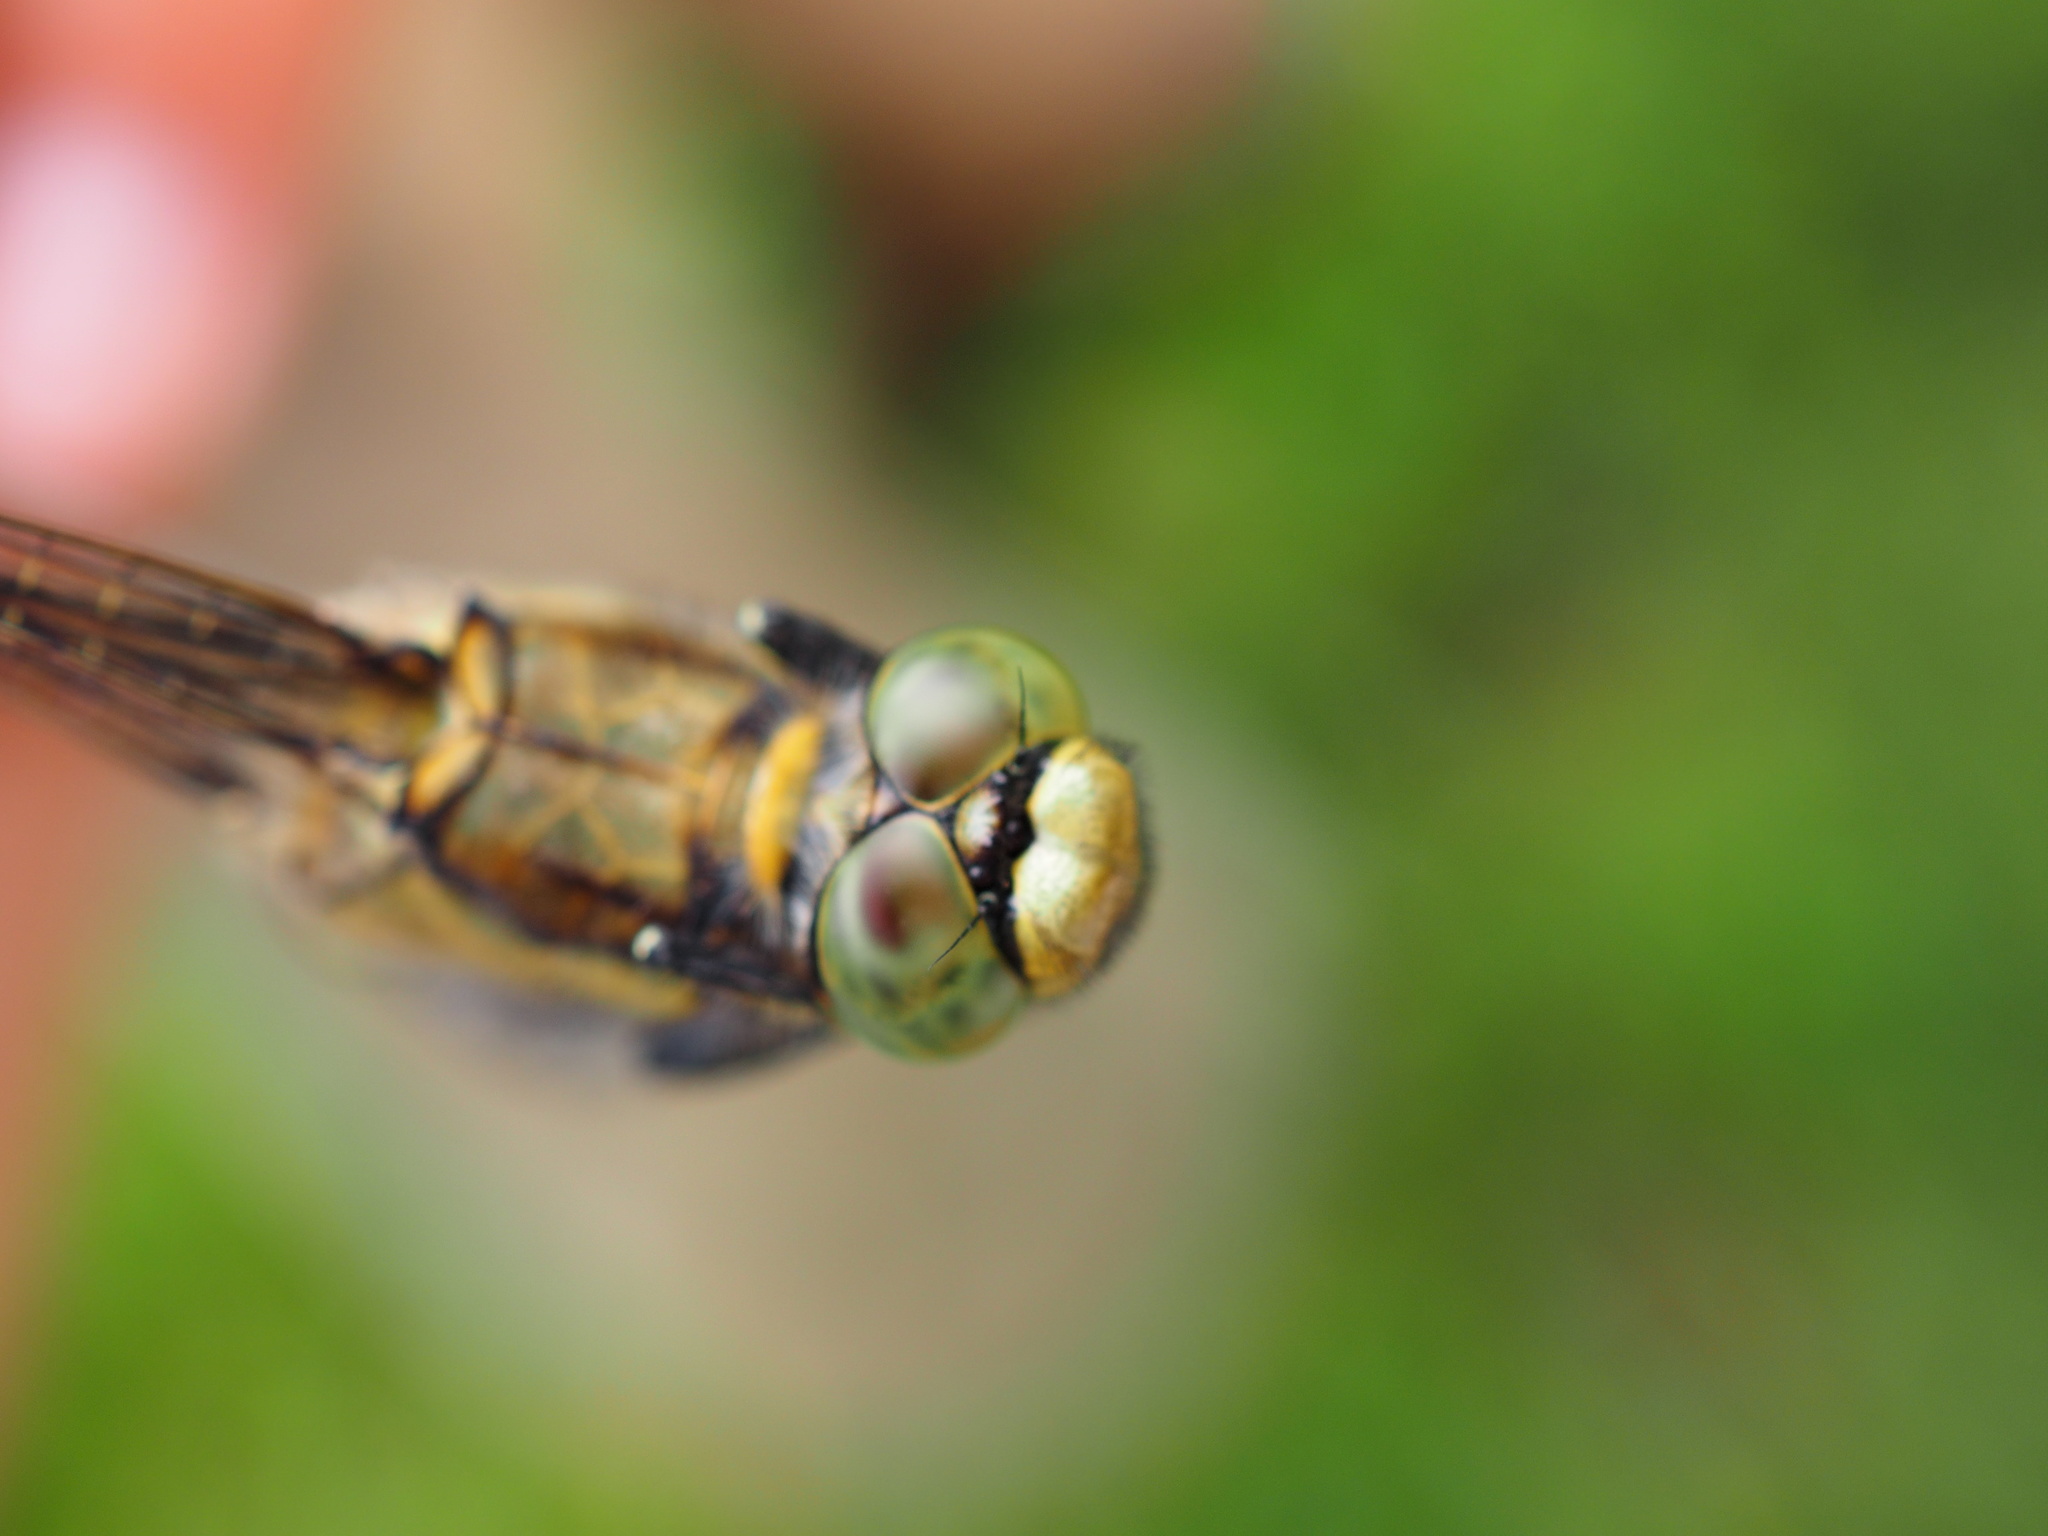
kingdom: Animalia
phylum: Arthropoda
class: Insecta
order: Odonata
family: Libellulidae
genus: Orthetrum
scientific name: Orthetrum cancellatum
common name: Black-tailed skimmer
